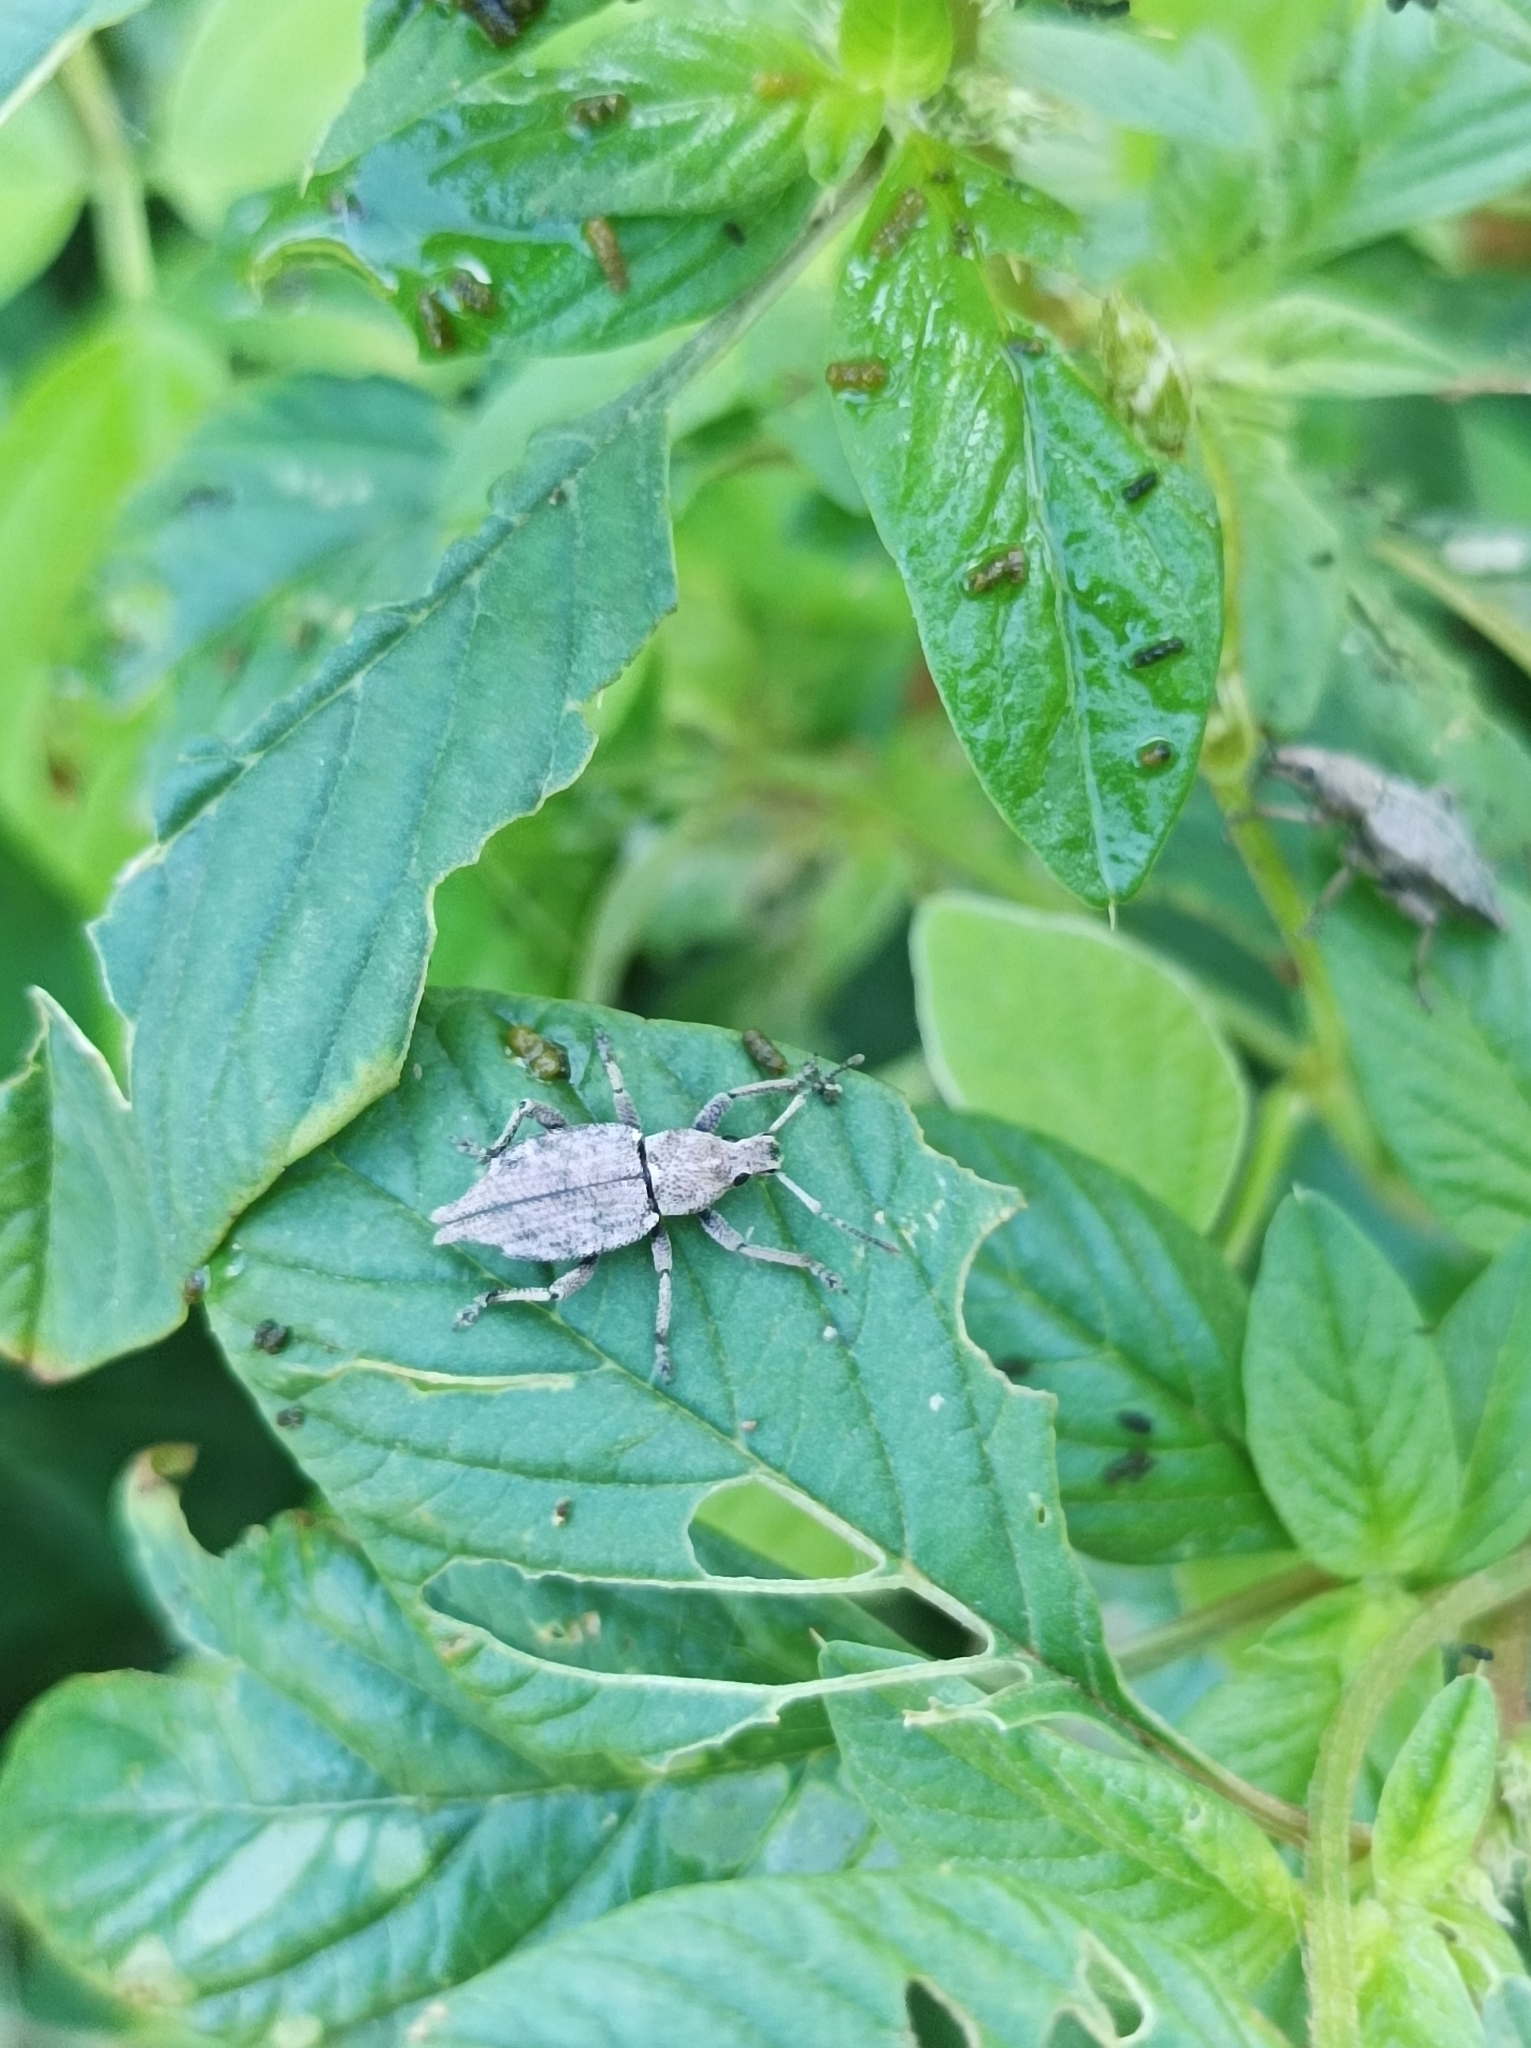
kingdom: Animalia
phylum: Arthropoda
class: Insecta
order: Coleoptera
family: Curculionidae
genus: Elytrurus
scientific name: Elytrurus caudatus
